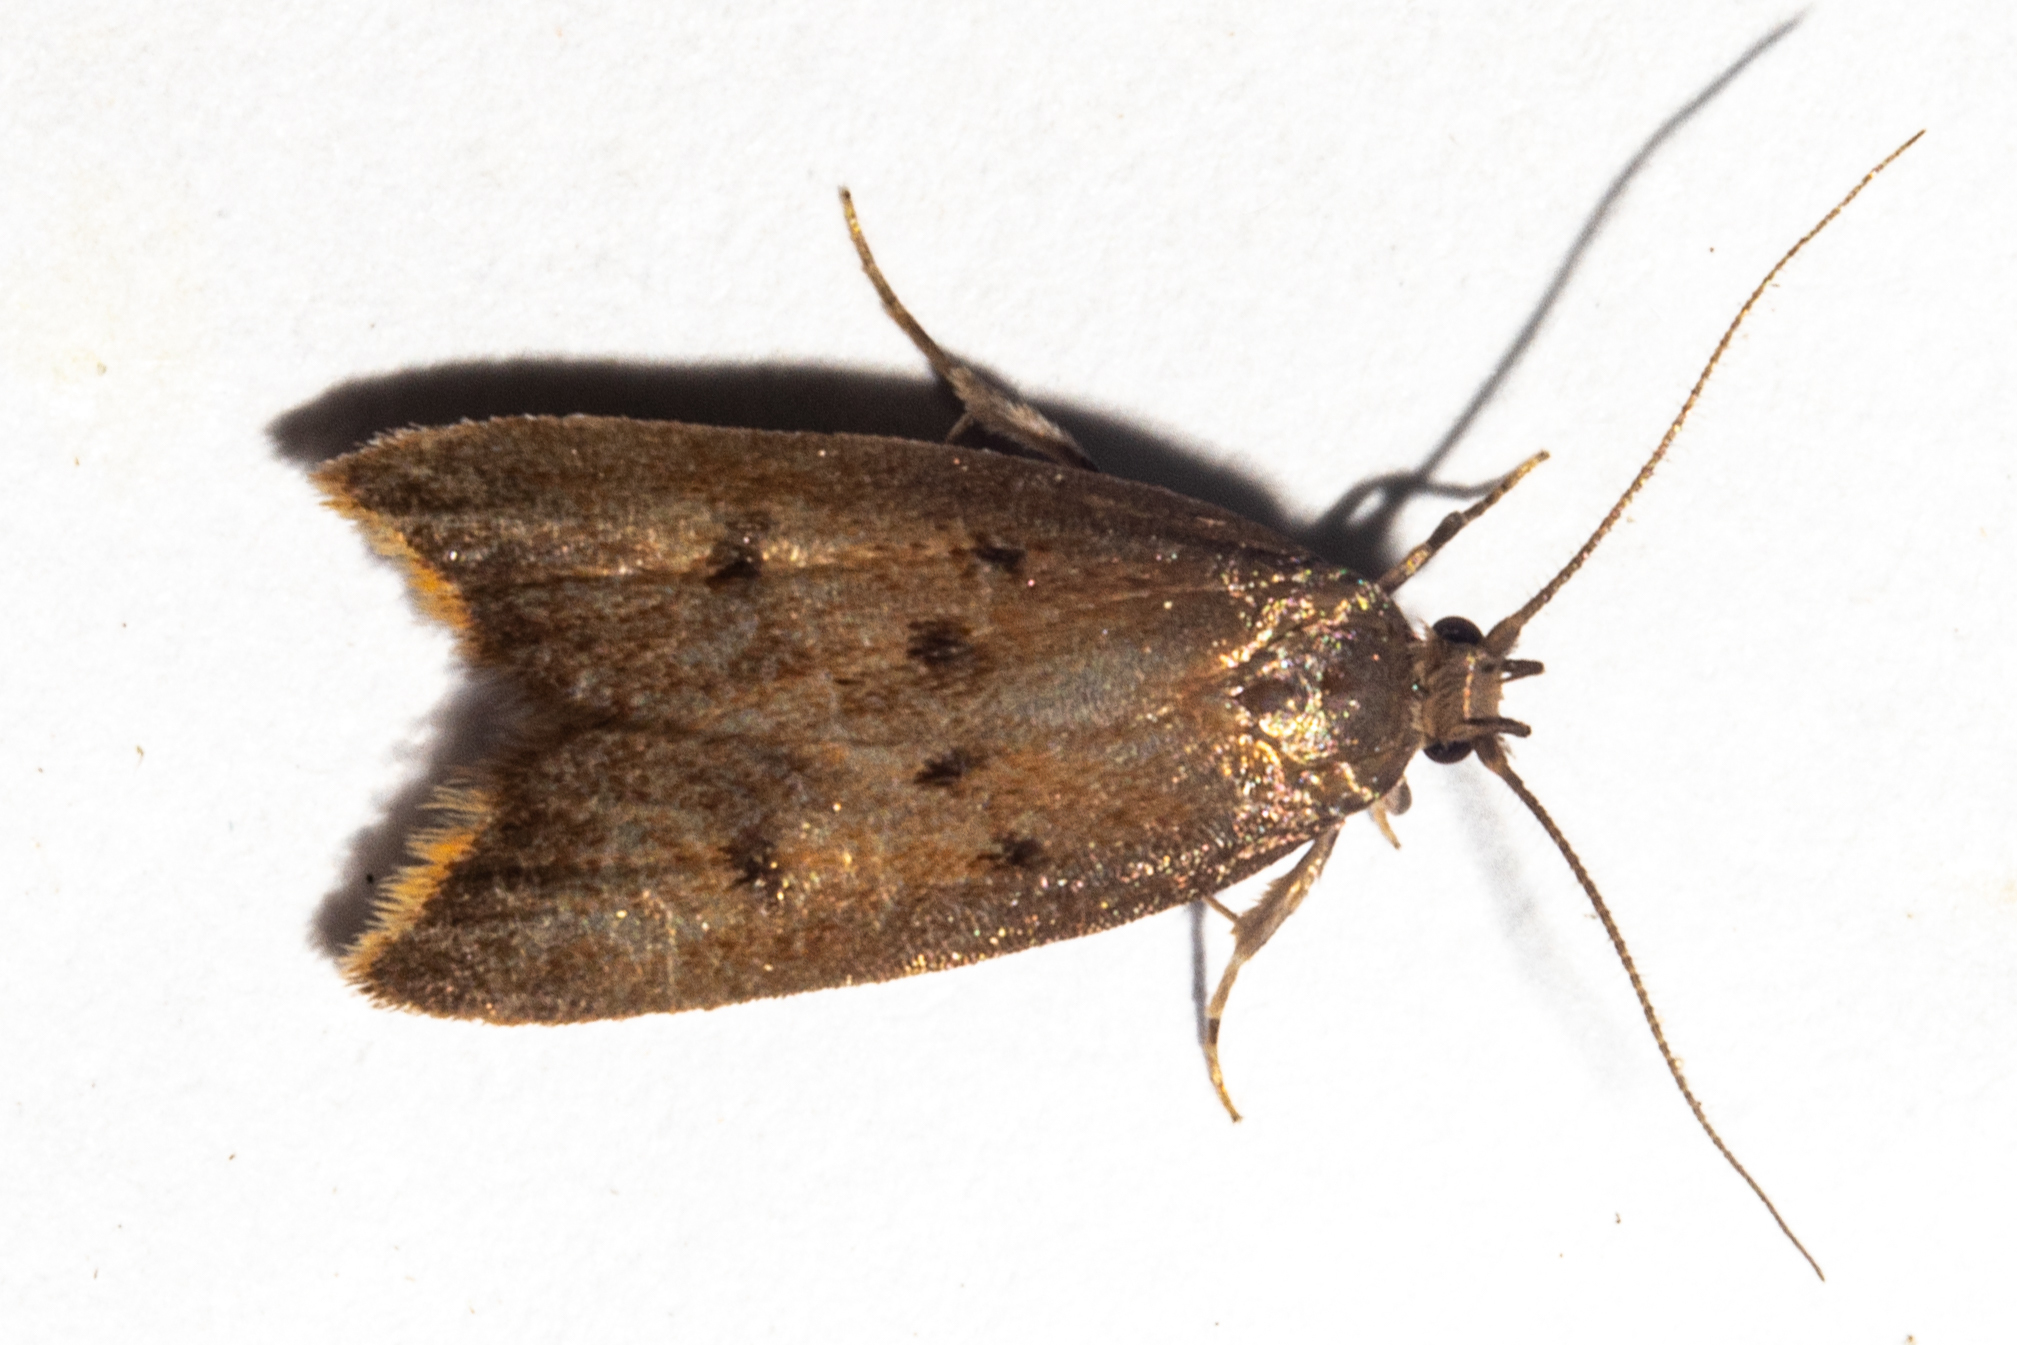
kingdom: Animalia
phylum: Arthropoda
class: Insecta
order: Lepidoptera
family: Oecophoridae
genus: Tachystola
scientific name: Tachystola acroxantha
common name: Ruddy streak
